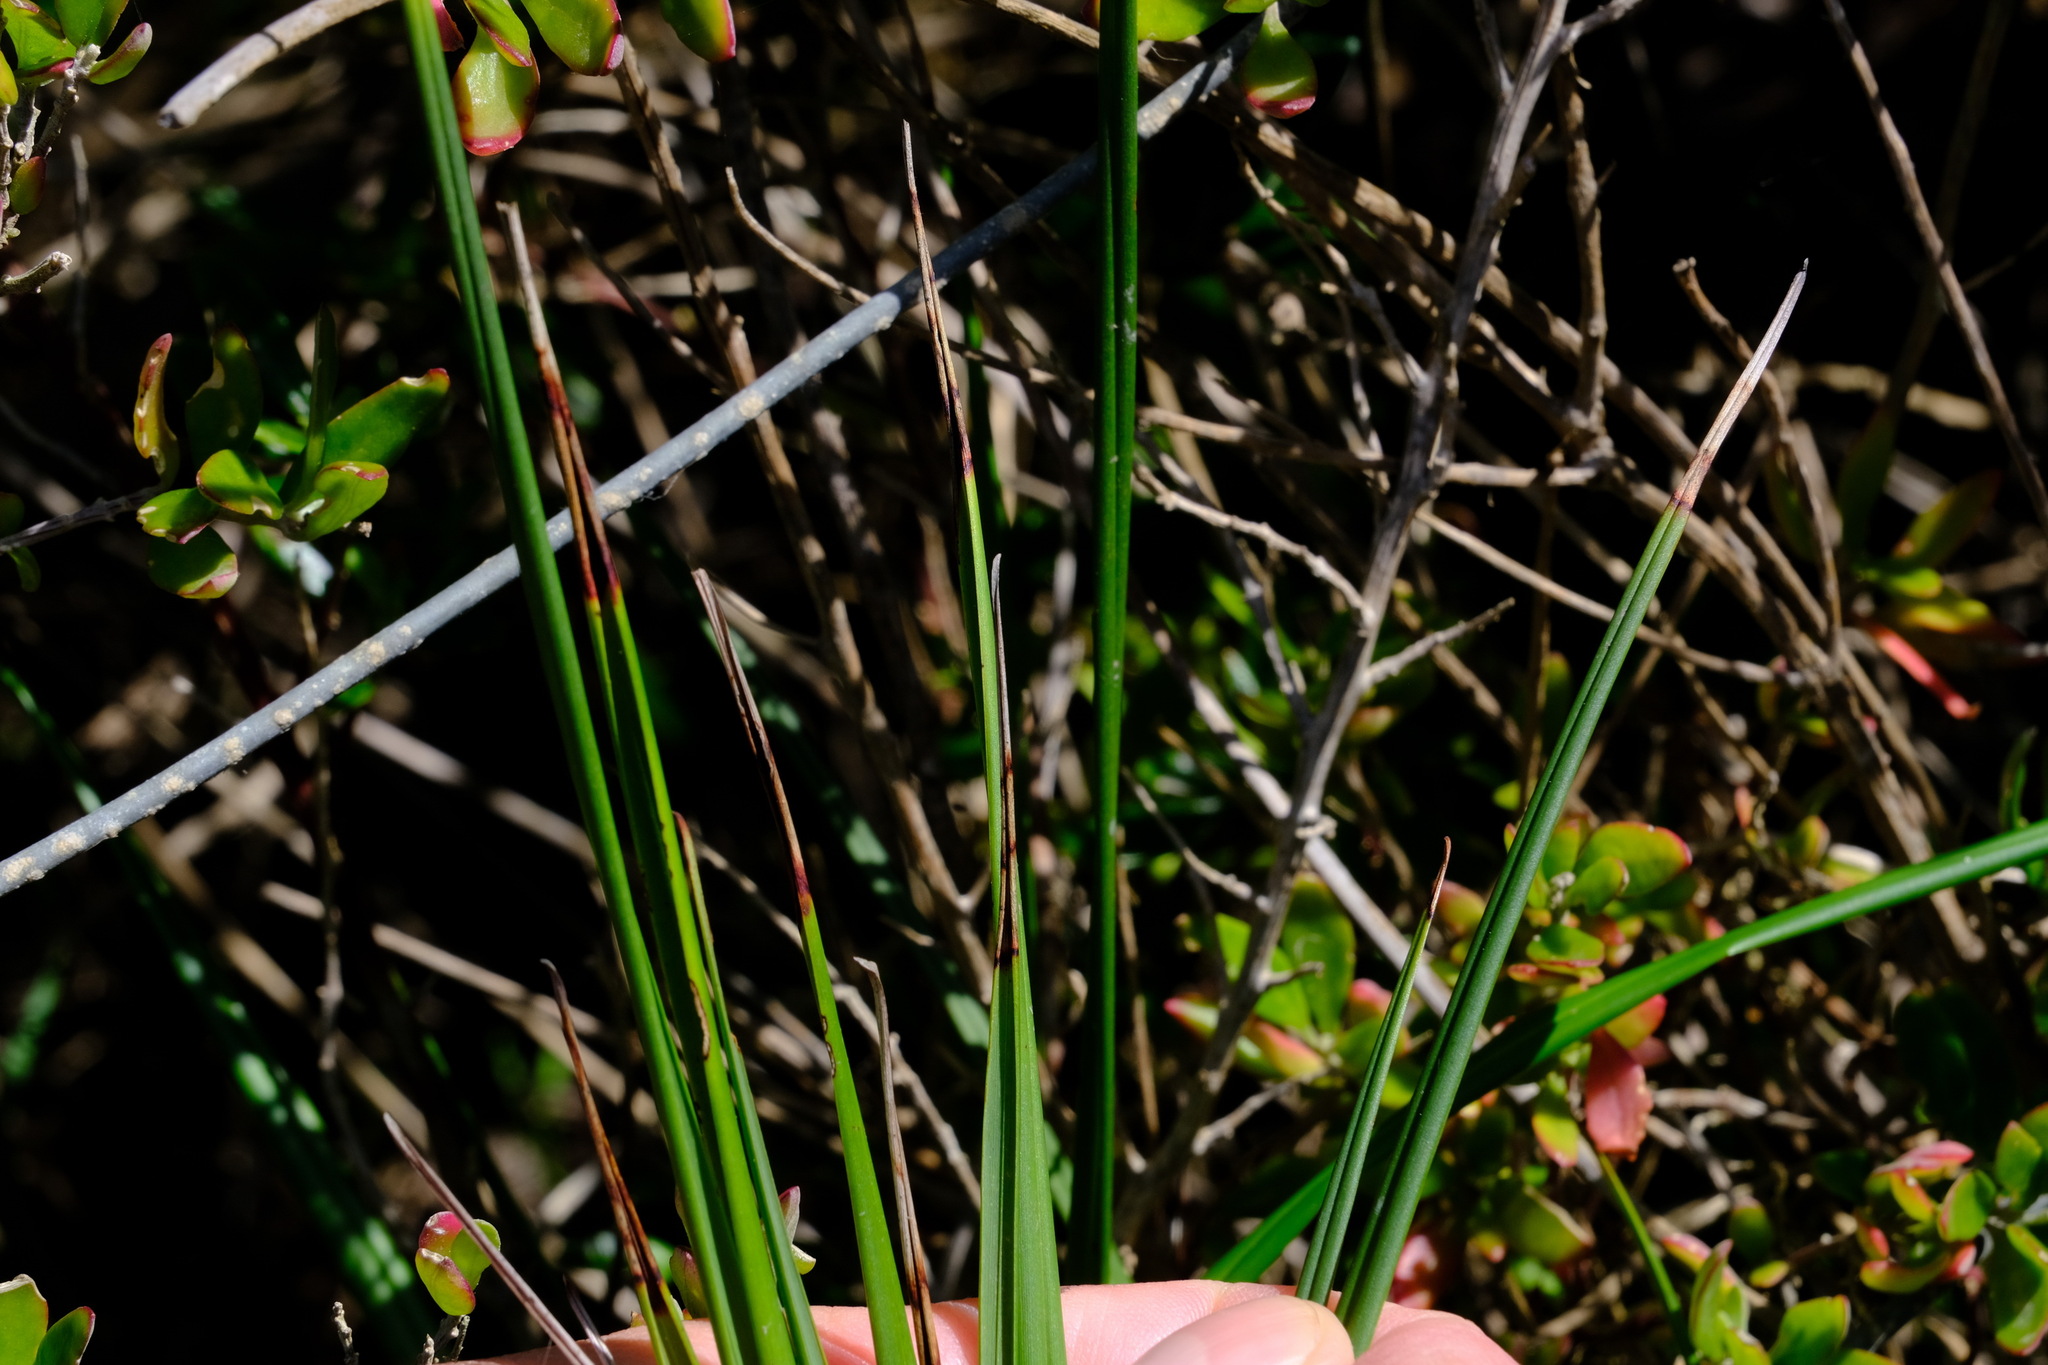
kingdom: Plantae
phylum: Tracheophyta
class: Liliopsida
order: Asparagales
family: Asphodelaceae
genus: Dianella
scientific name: Dianella brevicaulis
